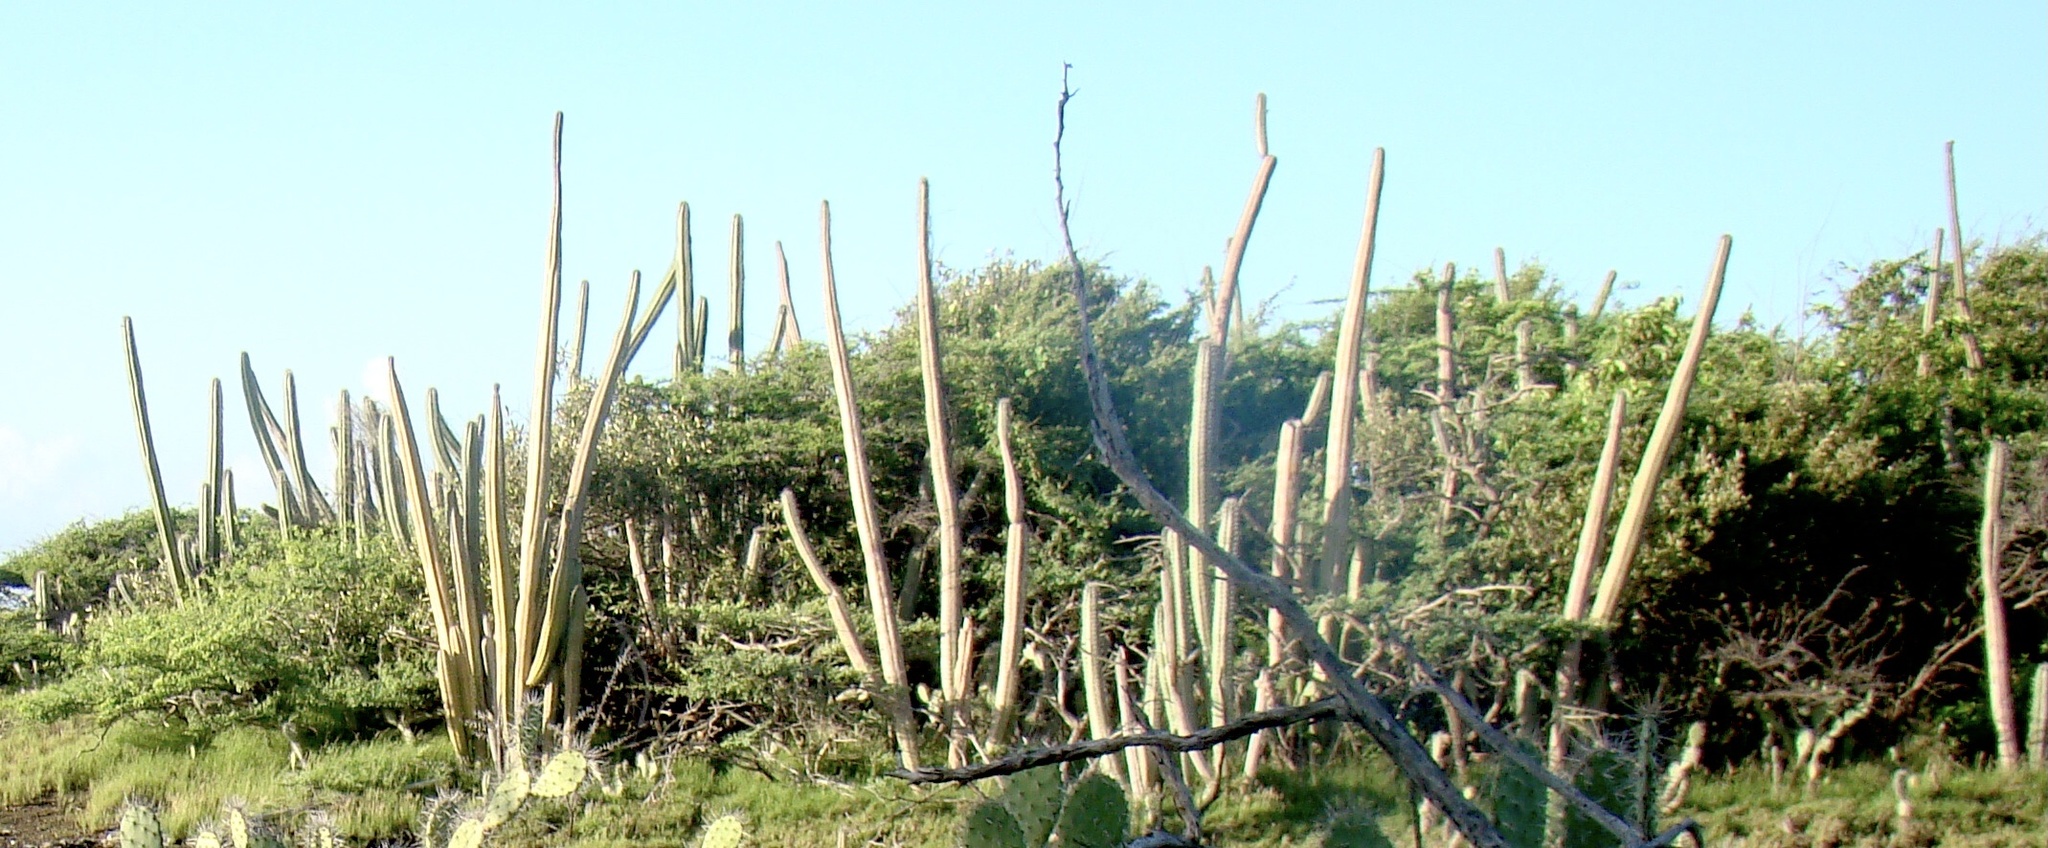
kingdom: Plantae
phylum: Tracheophyta
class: Magnoliopsida
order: Caryophyllales
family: Cactaceae
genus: Stenocereus
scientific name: Stenocereus griseus
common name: Tall candelabra cactus
